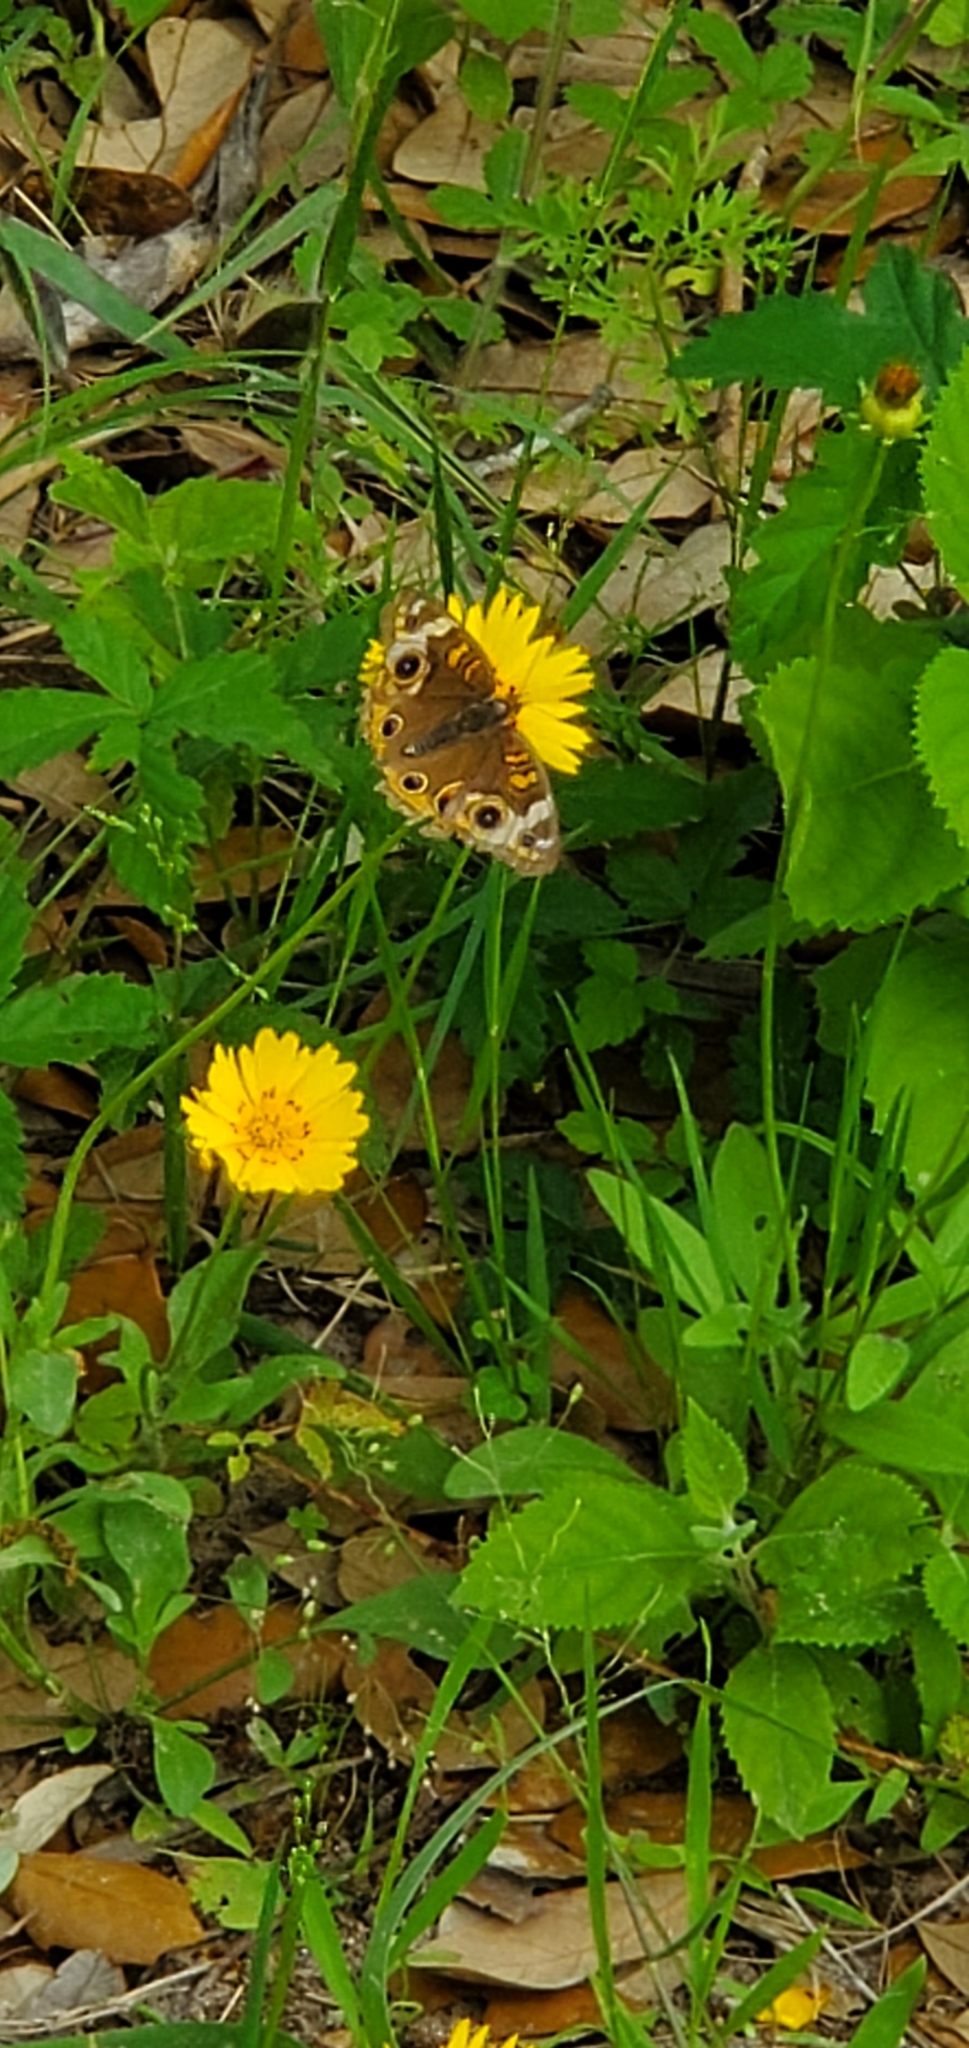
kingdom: Animalia
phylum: Arthropoda
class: Insecta
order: Lepidoptera
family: Nymphalidae
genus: Junonia
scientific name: Junonia coenia
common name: Common buckeye
